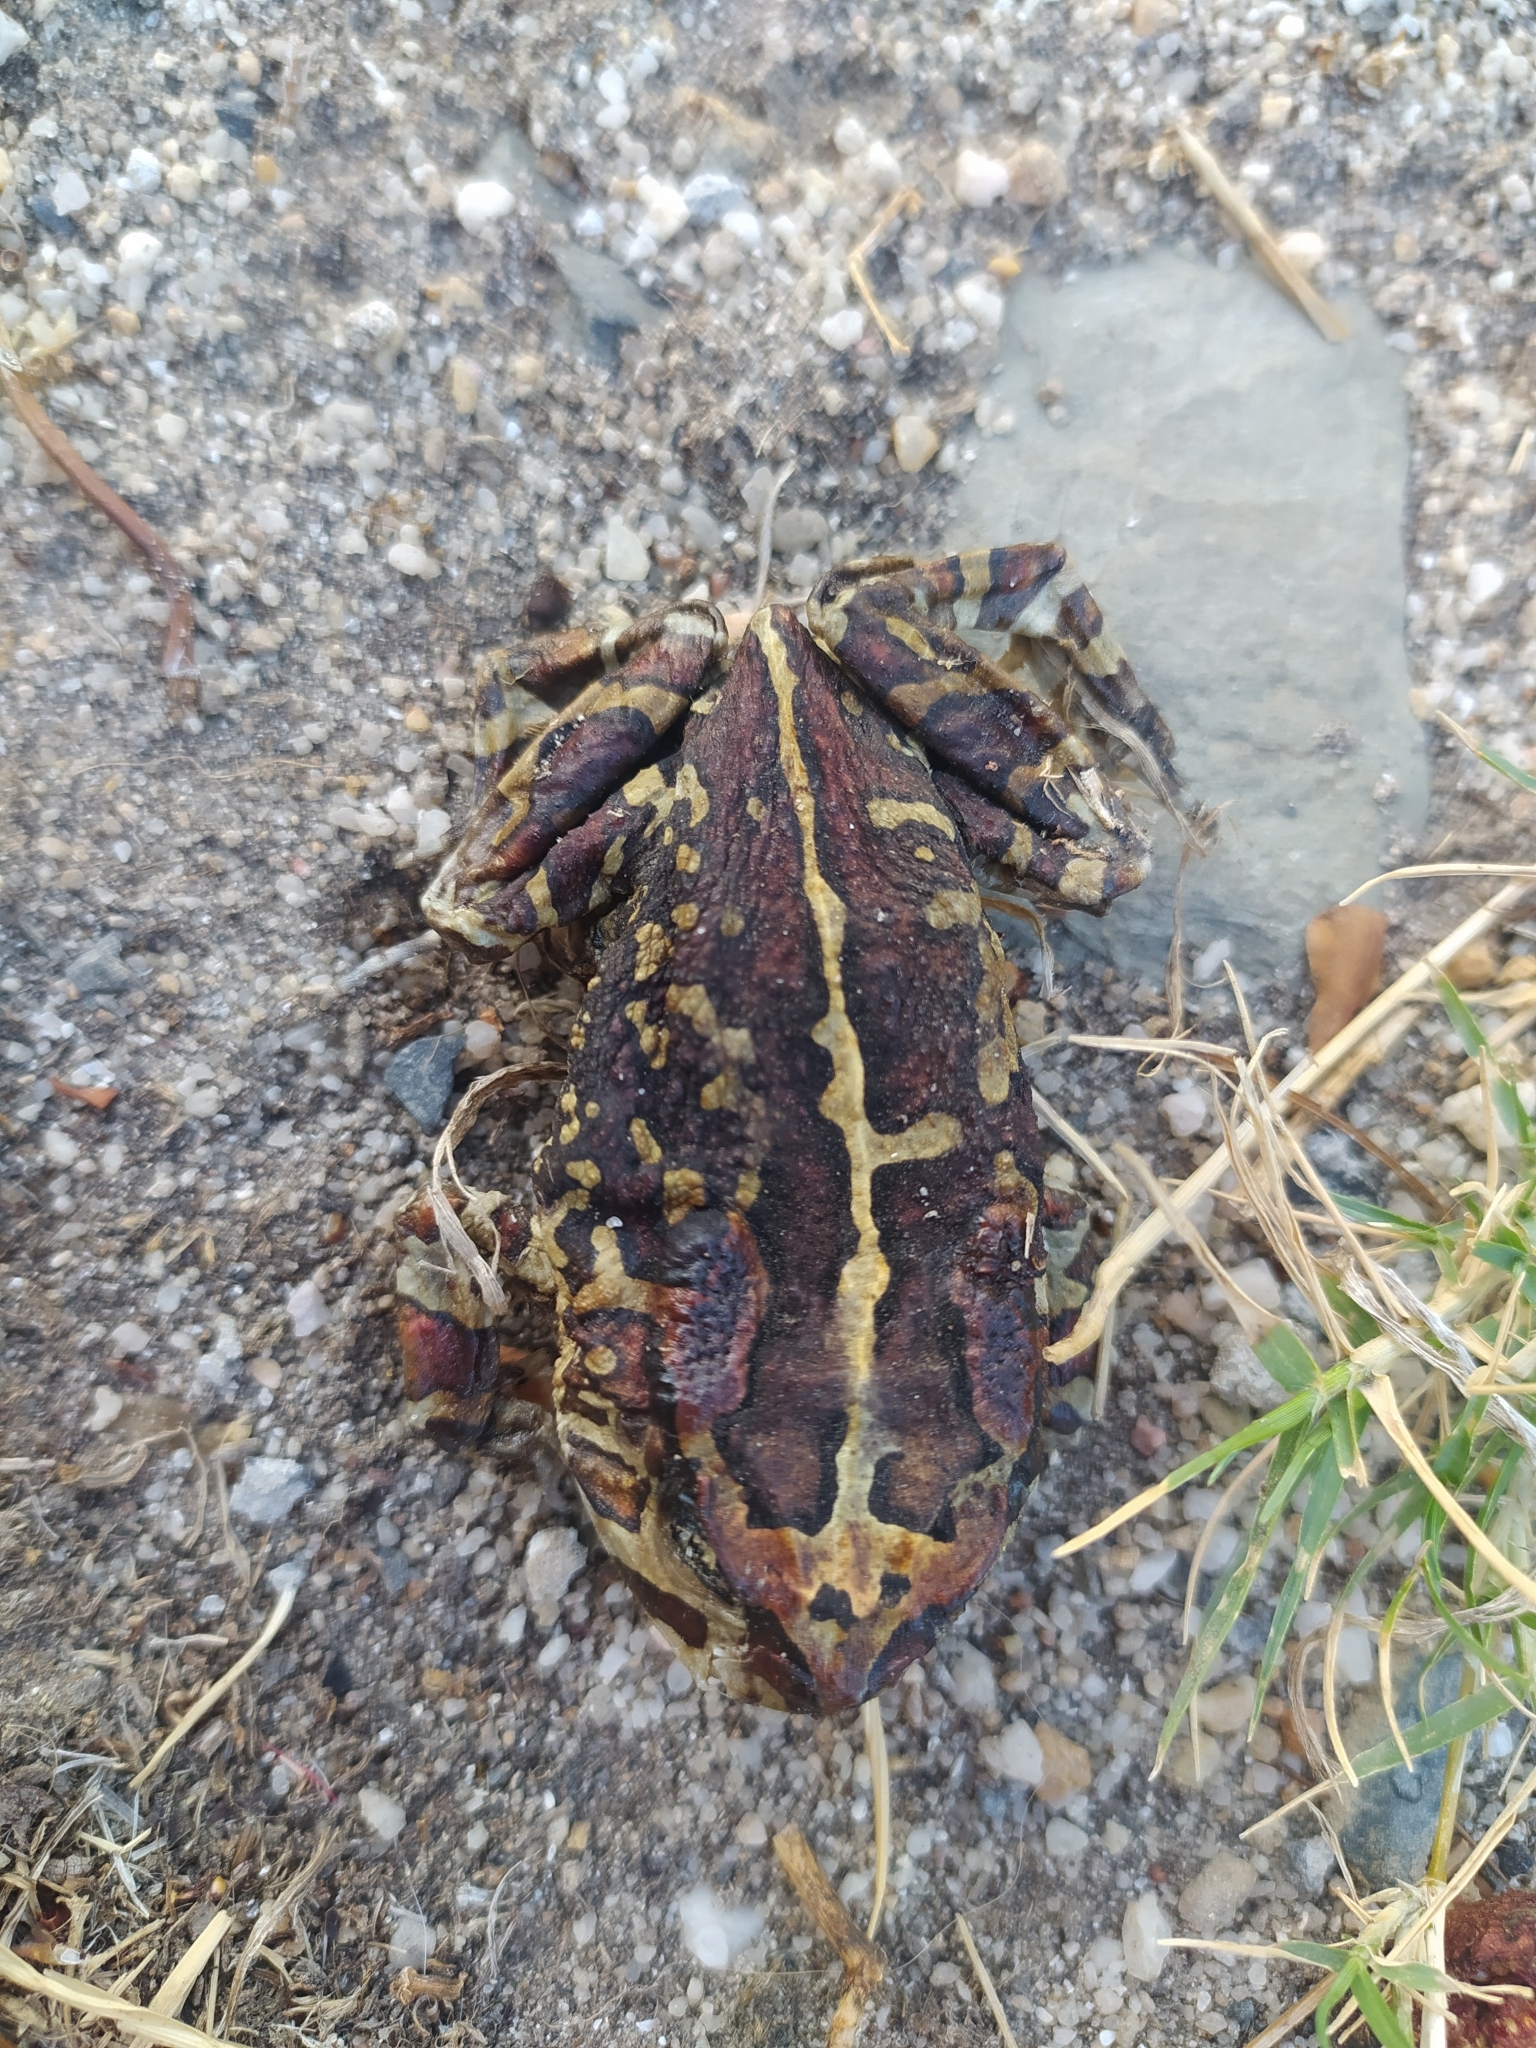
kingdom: Animalia
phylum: Chordata
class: Amphibia
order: Anura
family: Bufonidae
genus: Sclerophrys
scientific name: Sclerophrys pantherina
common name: Panther toad
